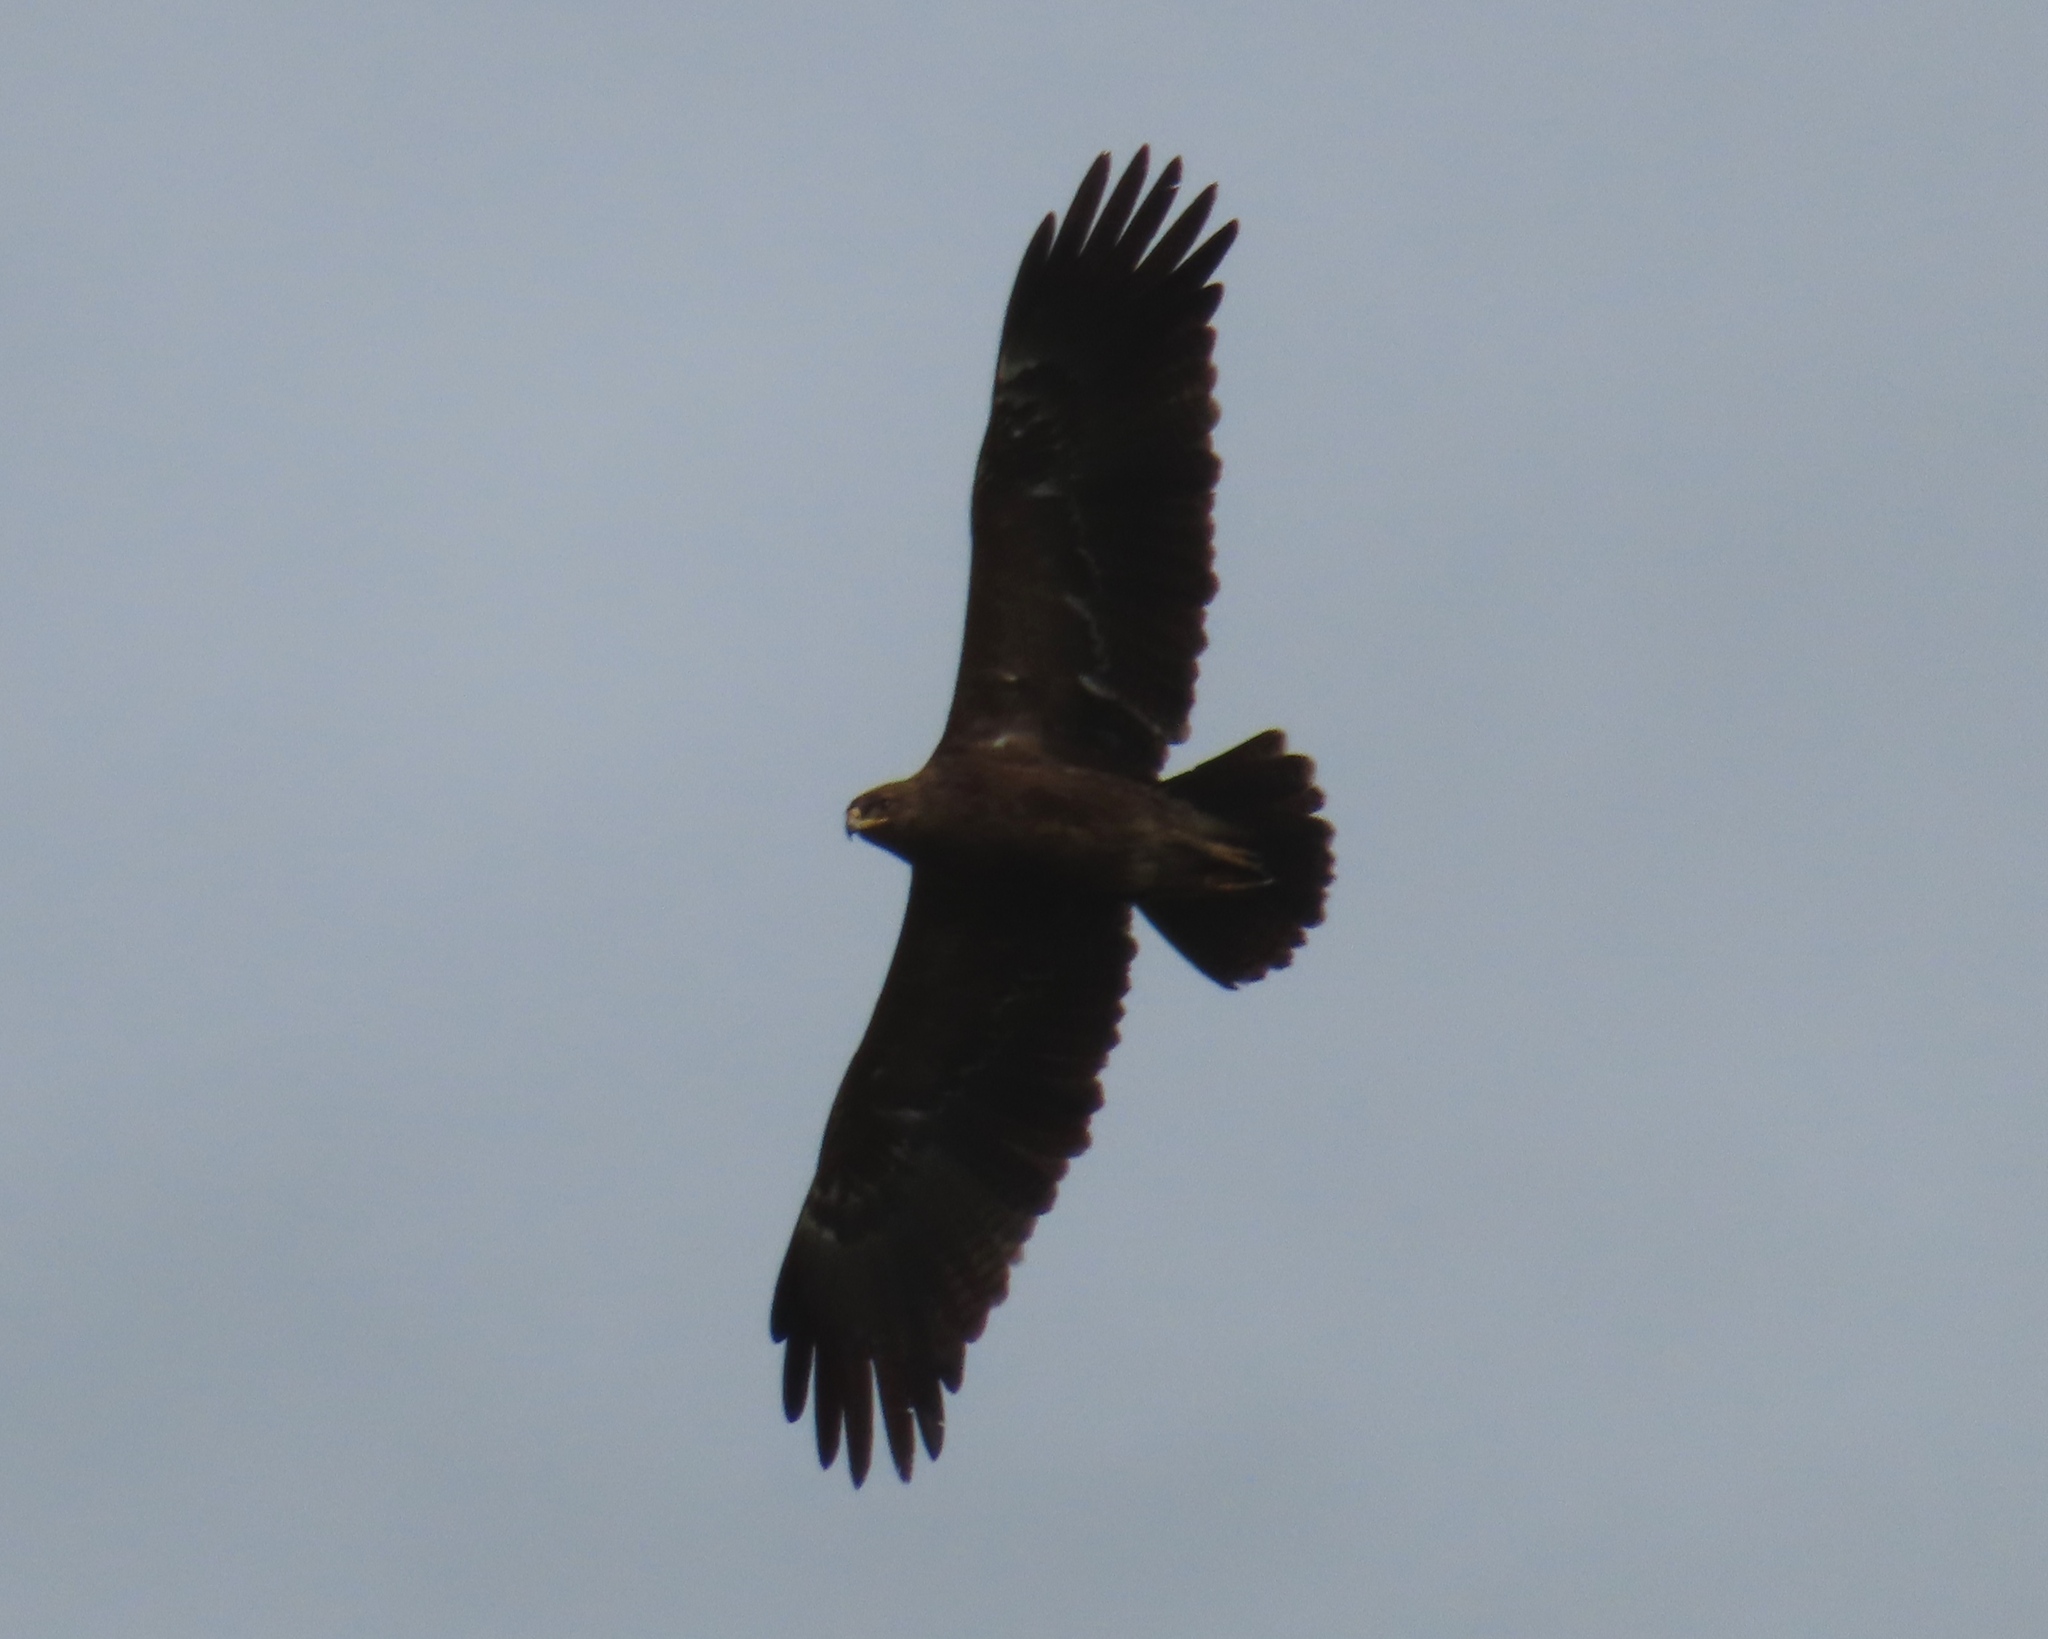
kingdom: Animalia
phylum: Chordata
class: Aves
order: Accipitriformes
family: Accipitridae
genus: Aquila
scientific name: Aquila pomarina
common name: Lesser spotted eagle
